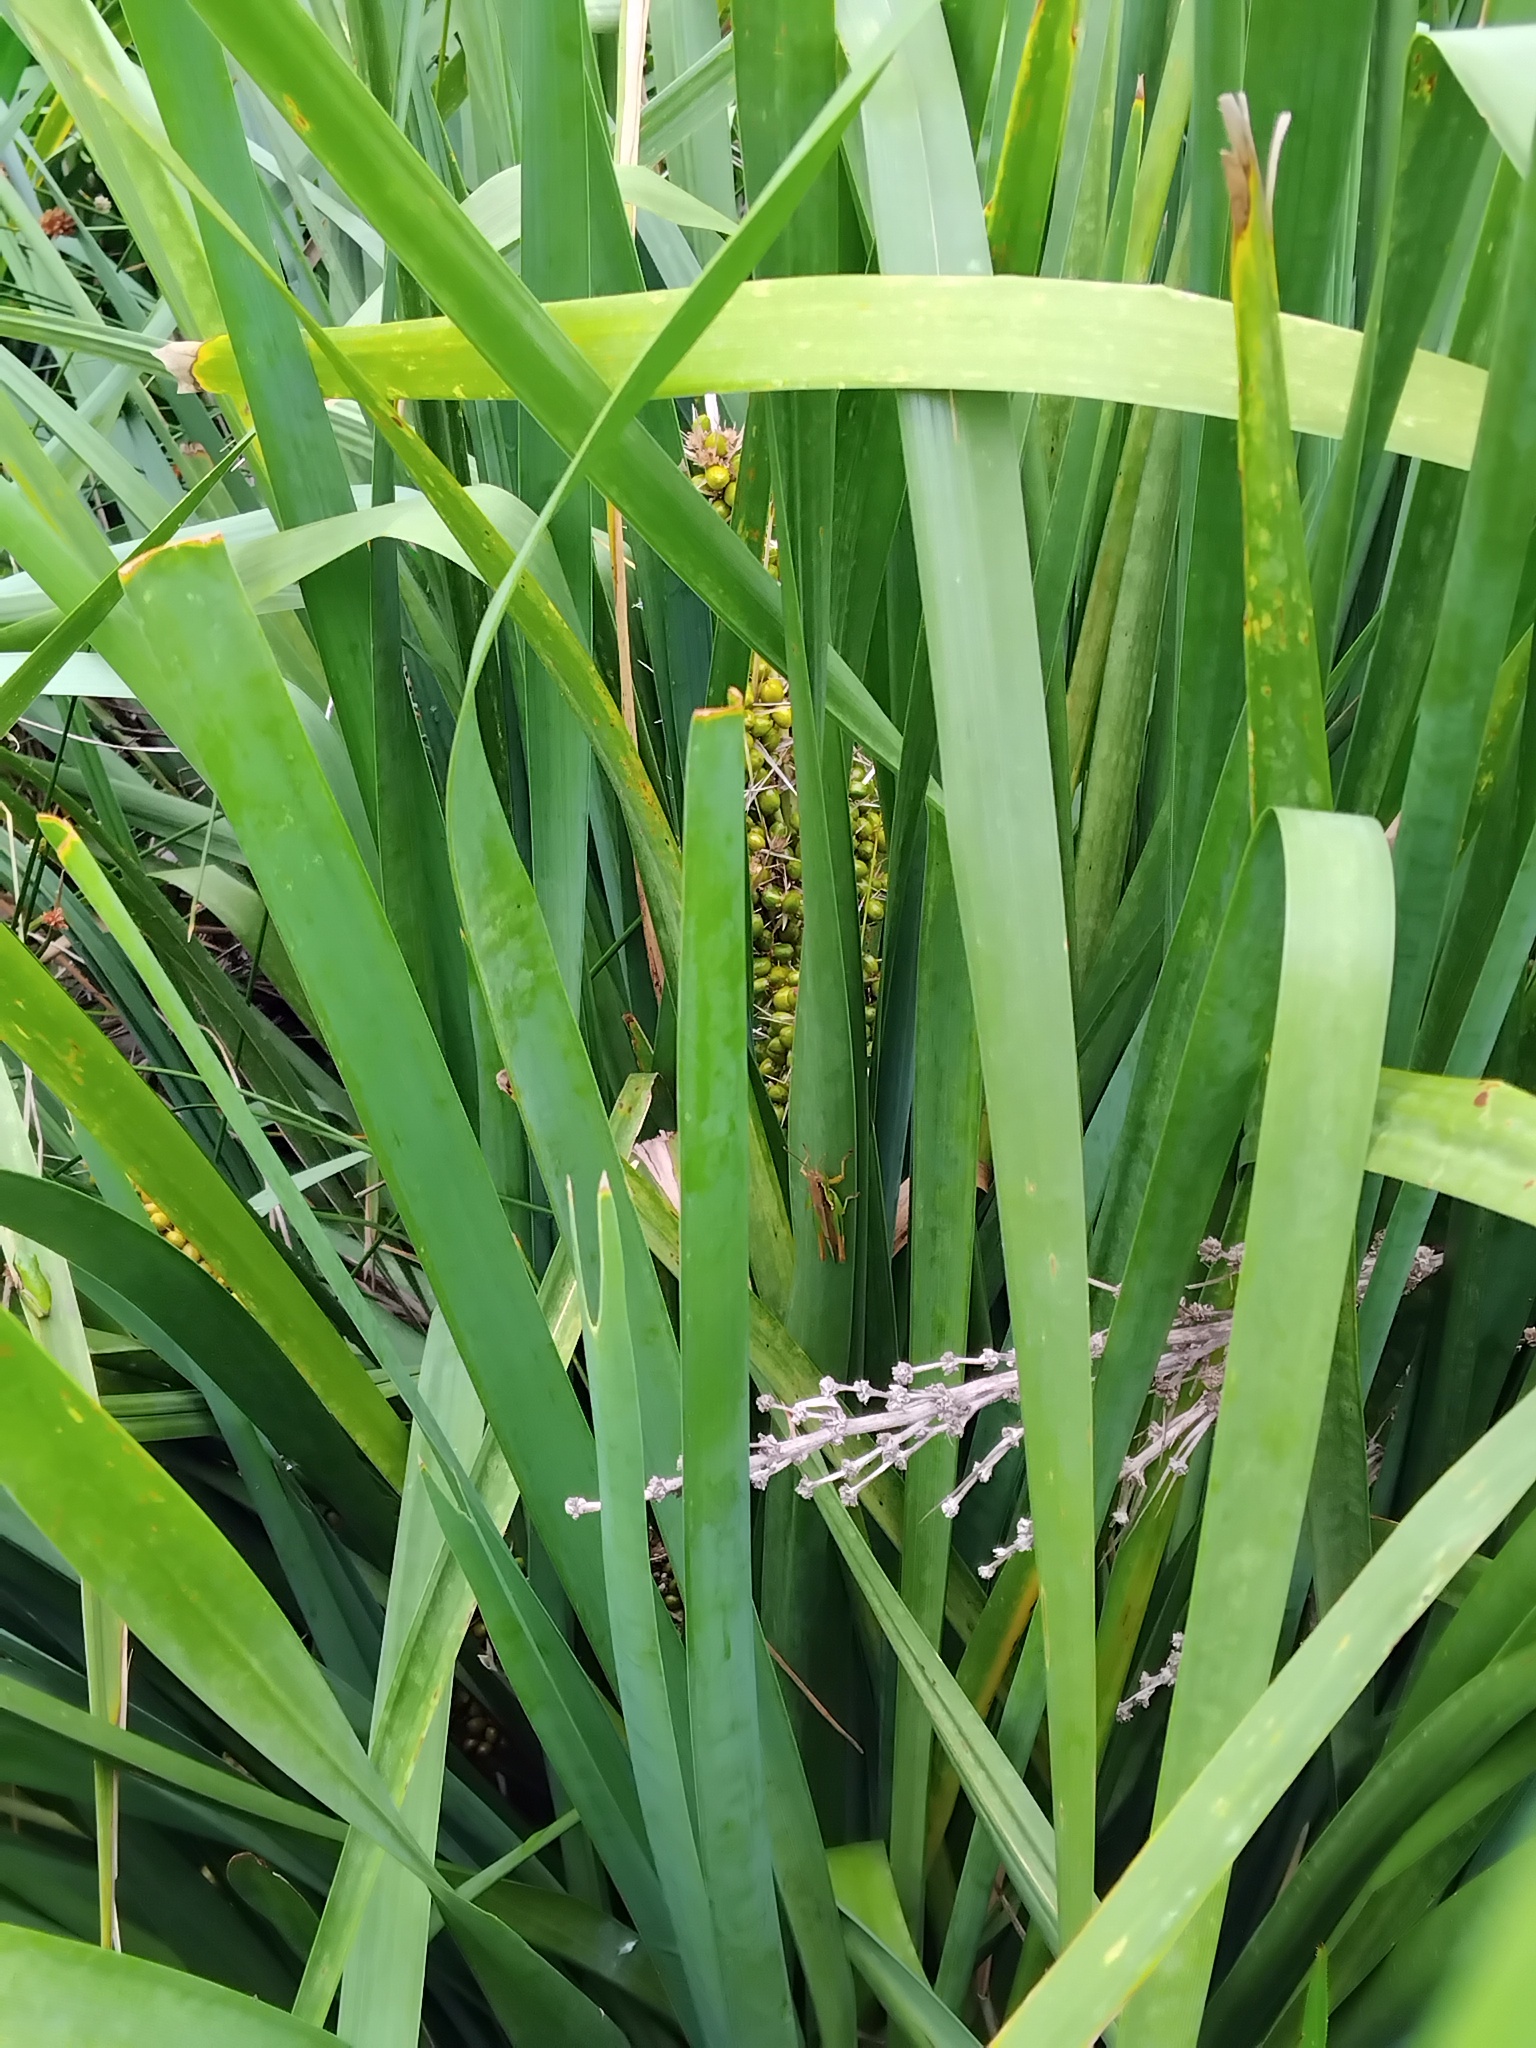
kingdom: Animalia
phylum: Arthropoda
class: Insecta
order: Orthoptera
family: Acrididae
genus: Bermius
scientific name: Bermius brachycerus
